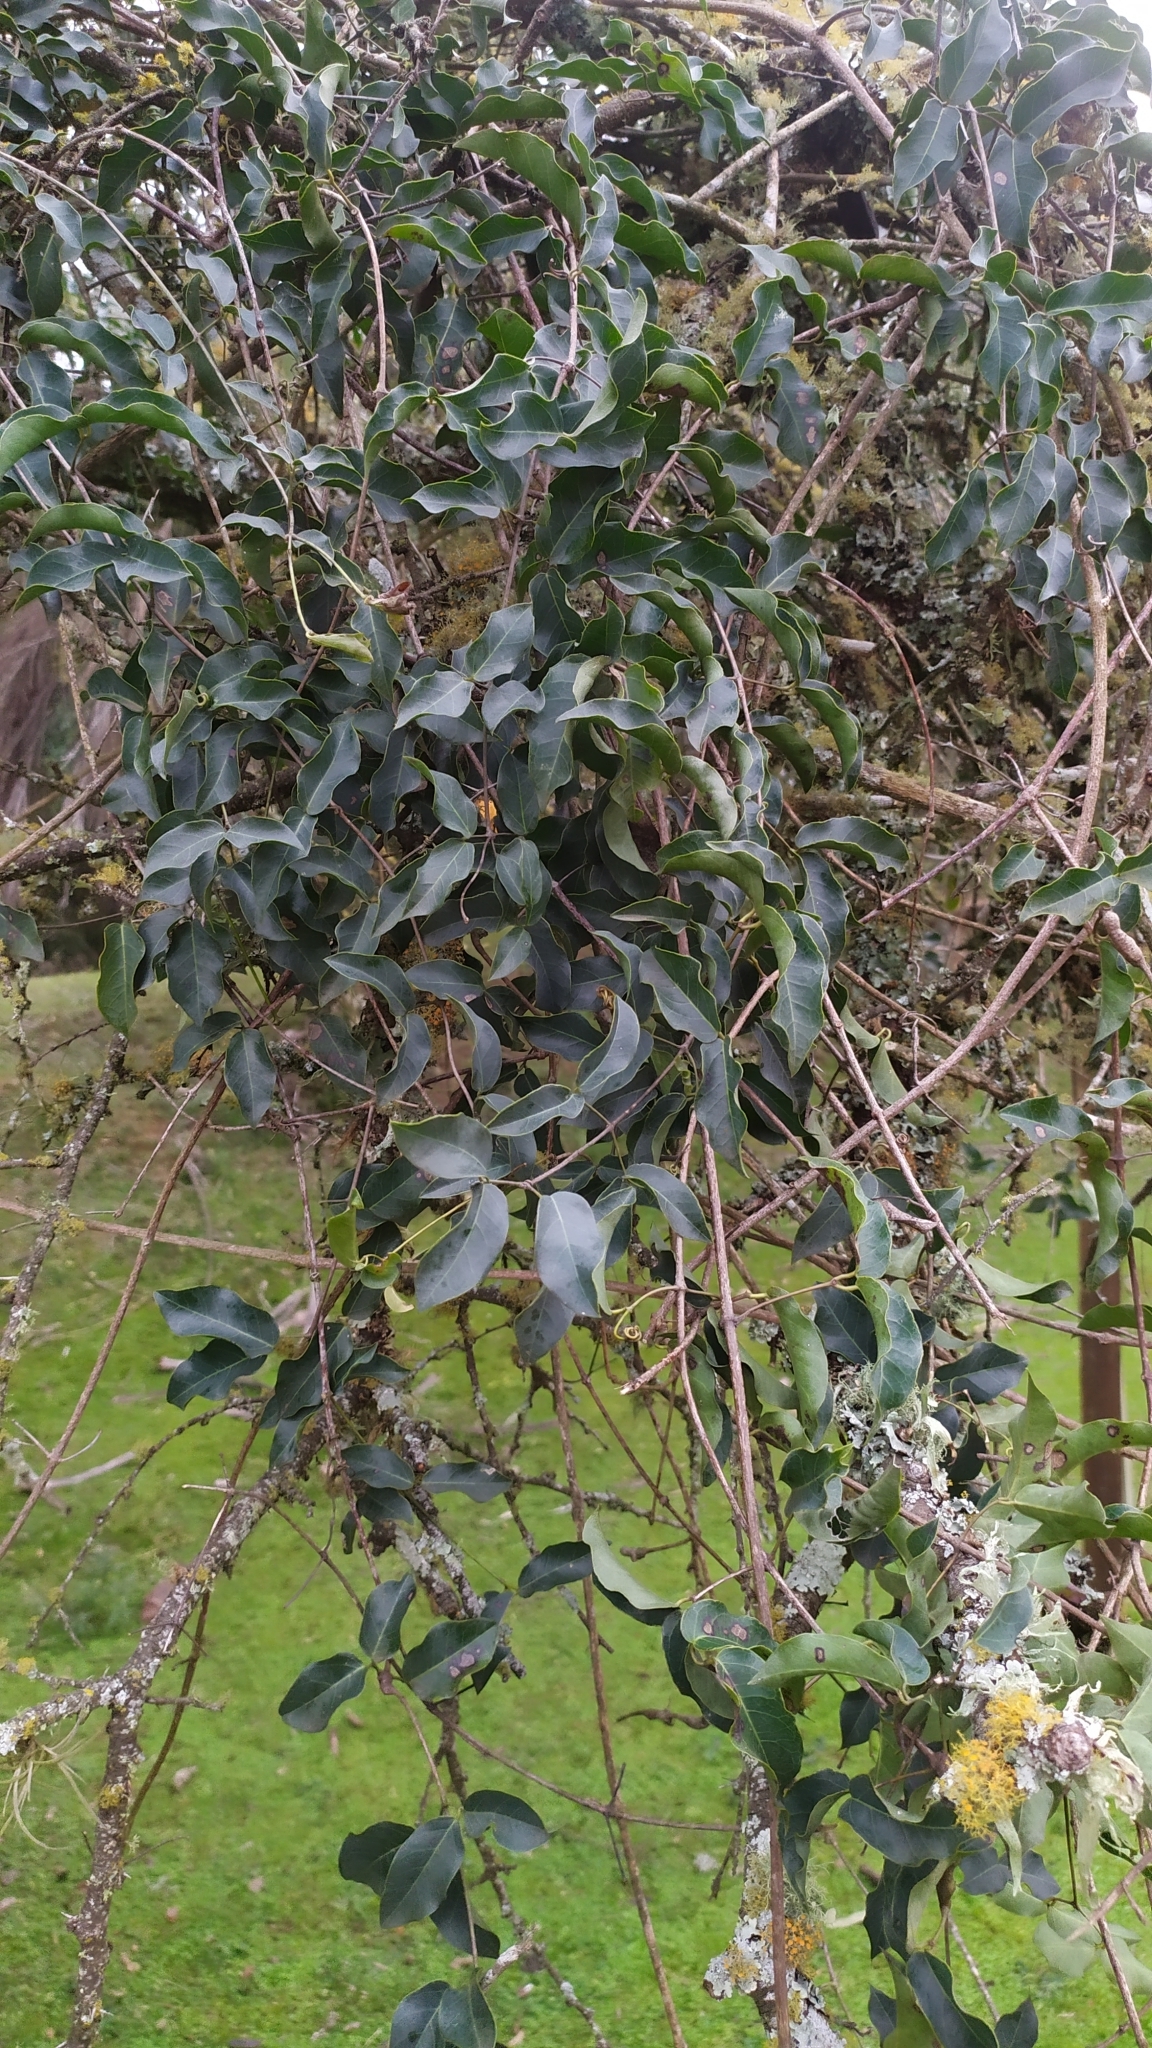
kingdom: Plantae
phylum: Tracheophyta
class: Magnoliopsida
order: Lamiales
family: Bignoniaceae
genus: Dolichandra
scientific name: Dolichandra cynanchoides
